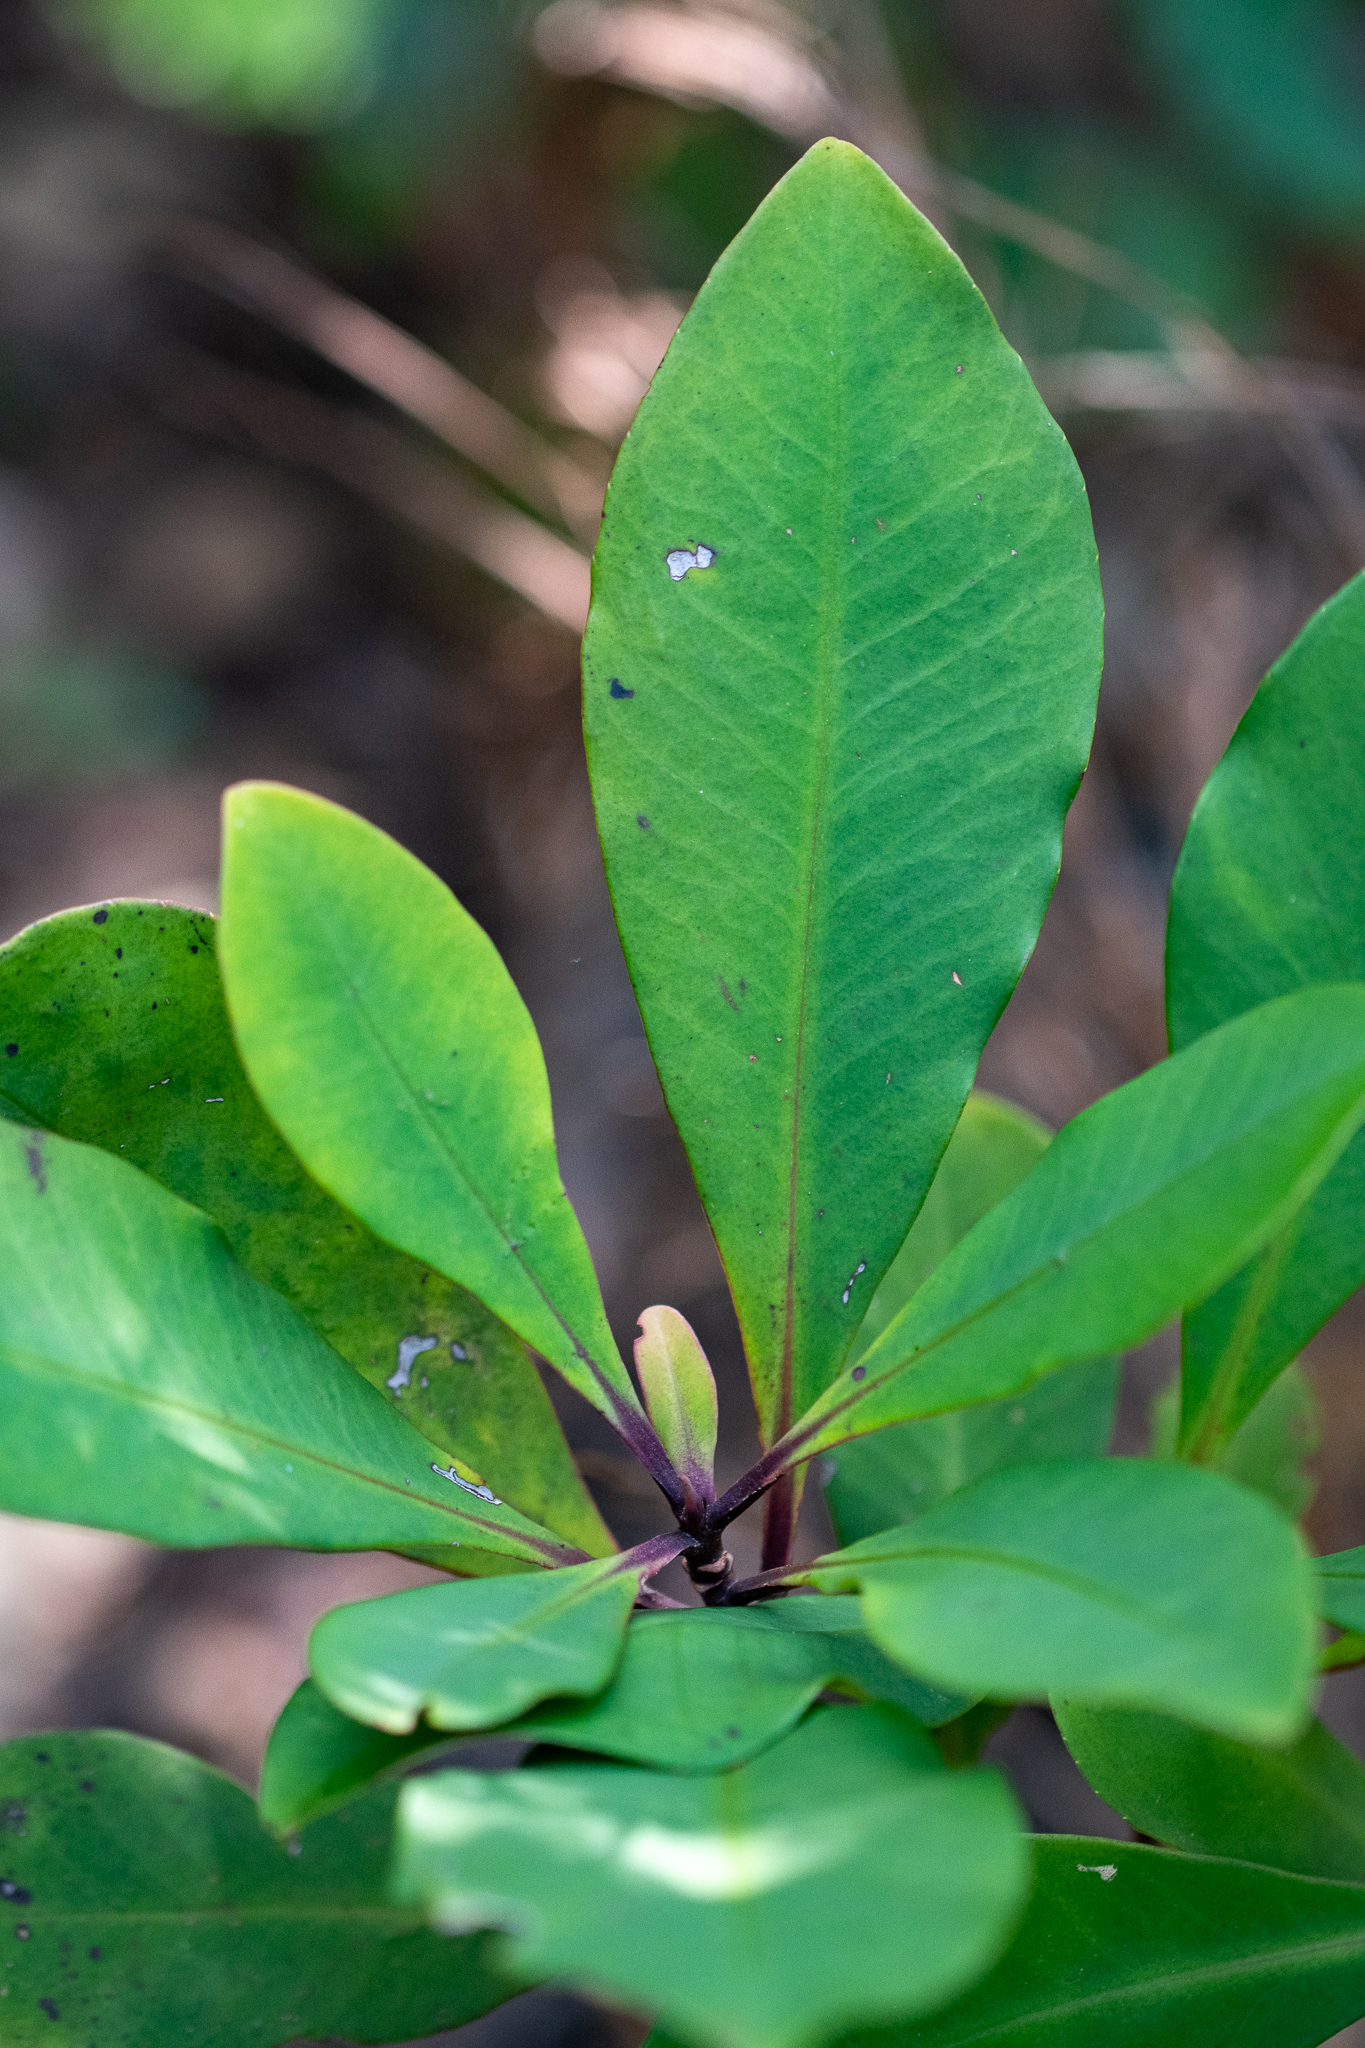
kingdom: Plantae
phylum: Tracheophyta
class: Magnoliopsida
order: Ericales
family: Primulaceae
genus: Myrsine
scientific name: Myrsine melanophloeos
